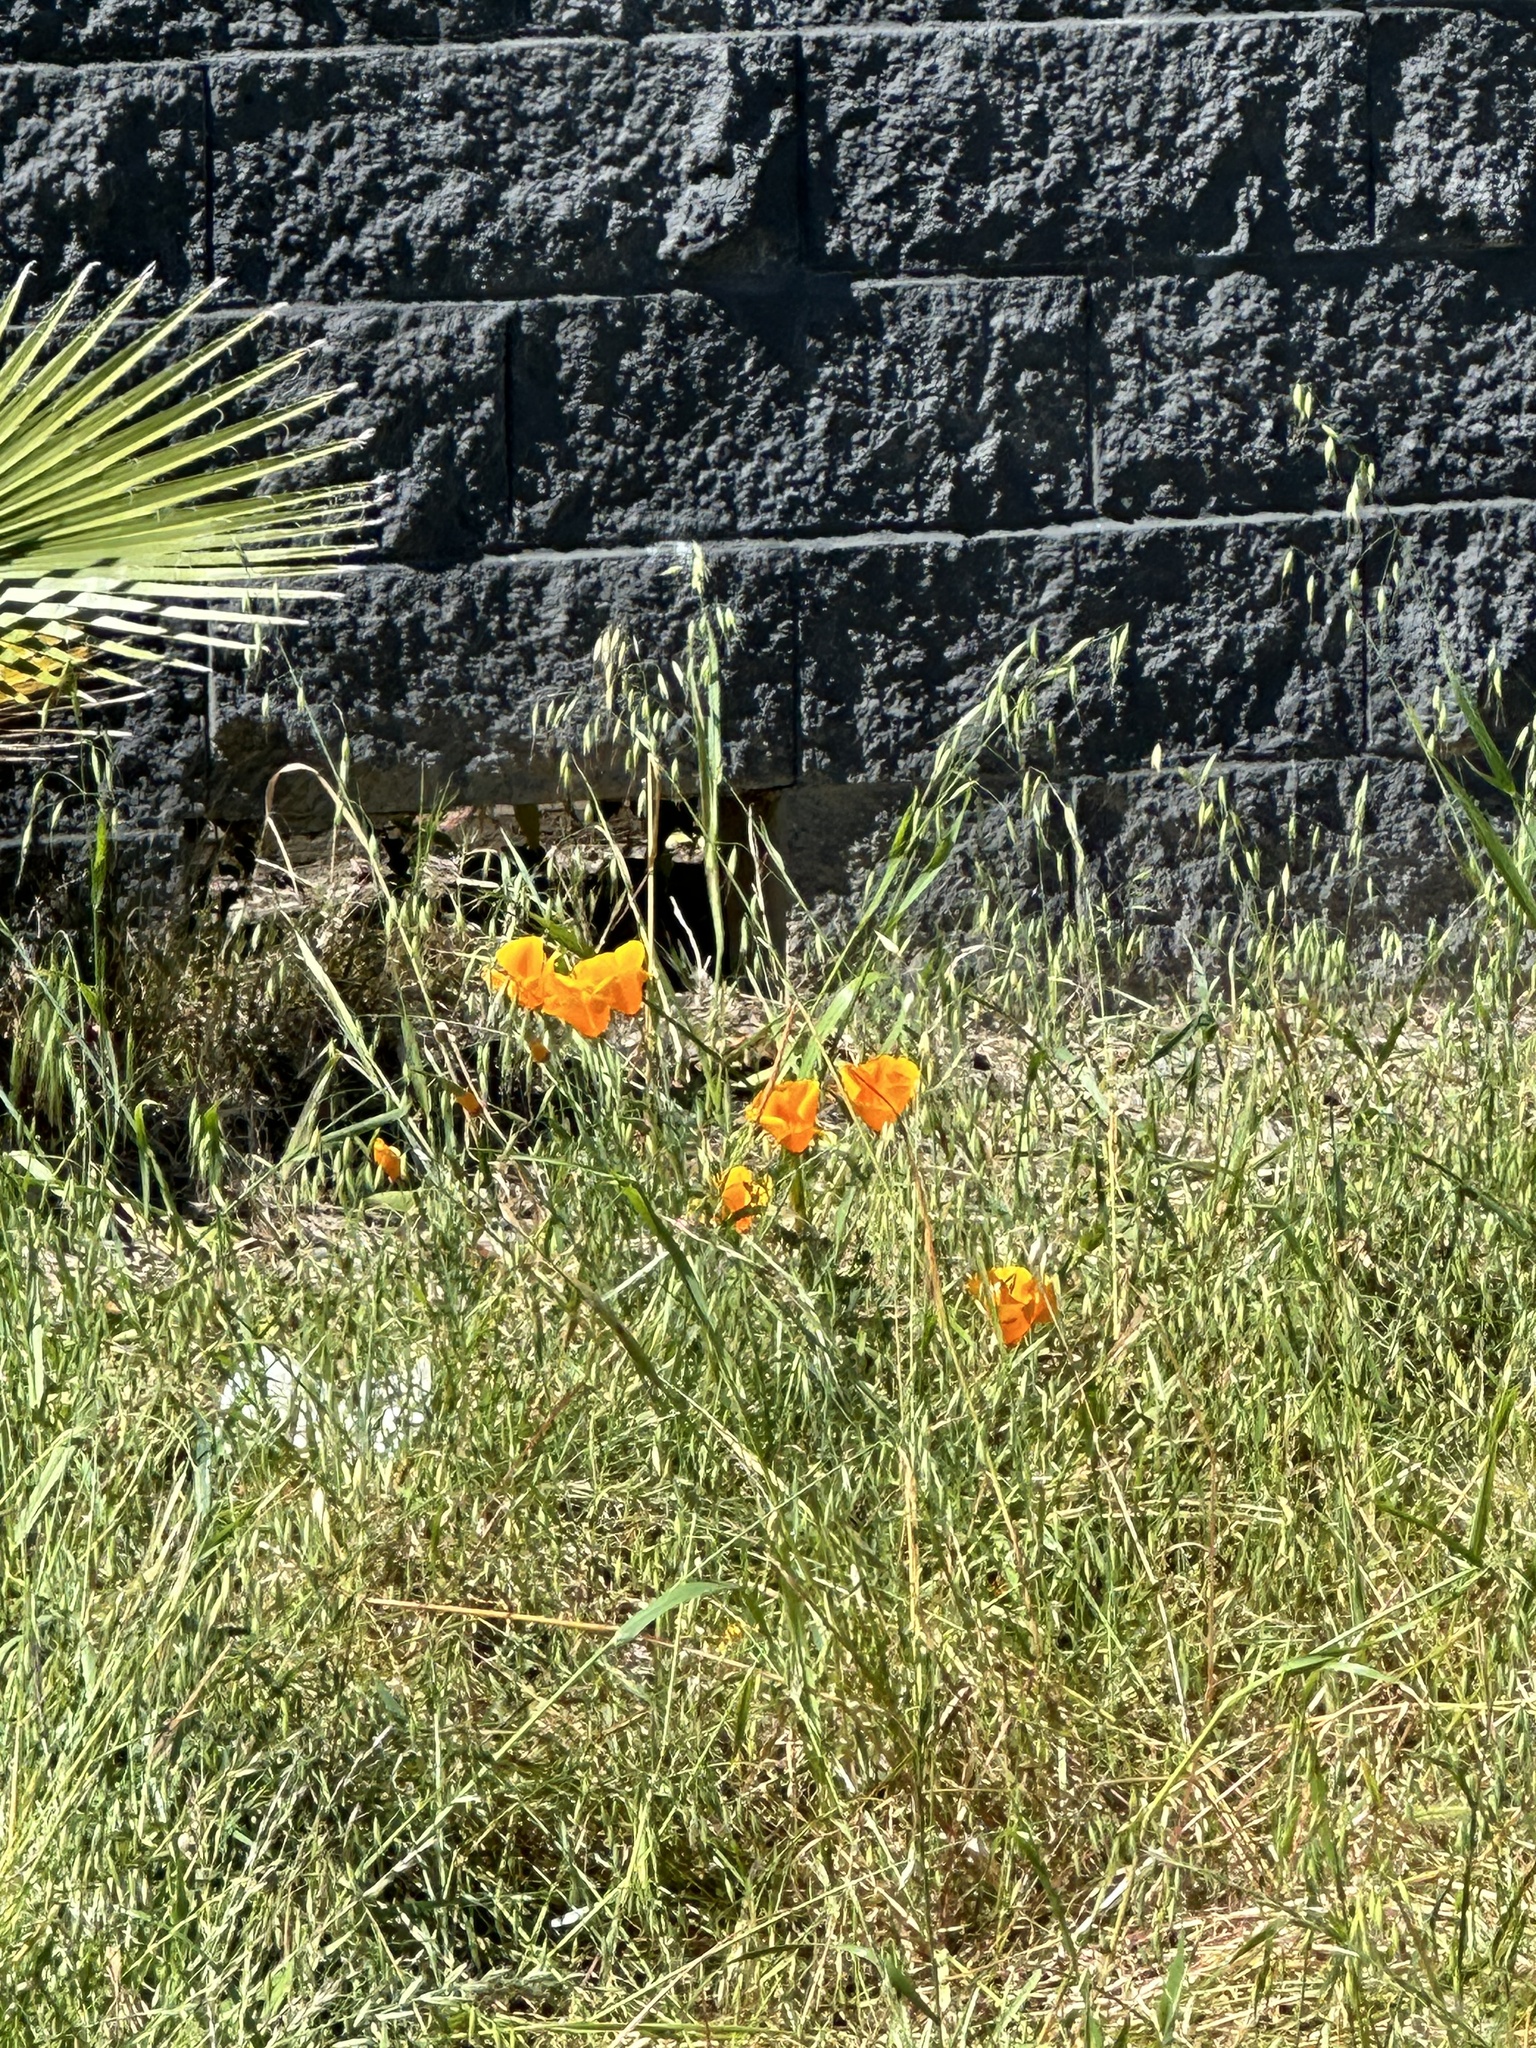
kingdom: Plantae
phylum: Tracheophyta
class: Magnoliopsida
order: Ranunculales
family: Papaveraceae
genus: Eschscholzia
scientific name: Eschscholzia californica
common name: California poppy
